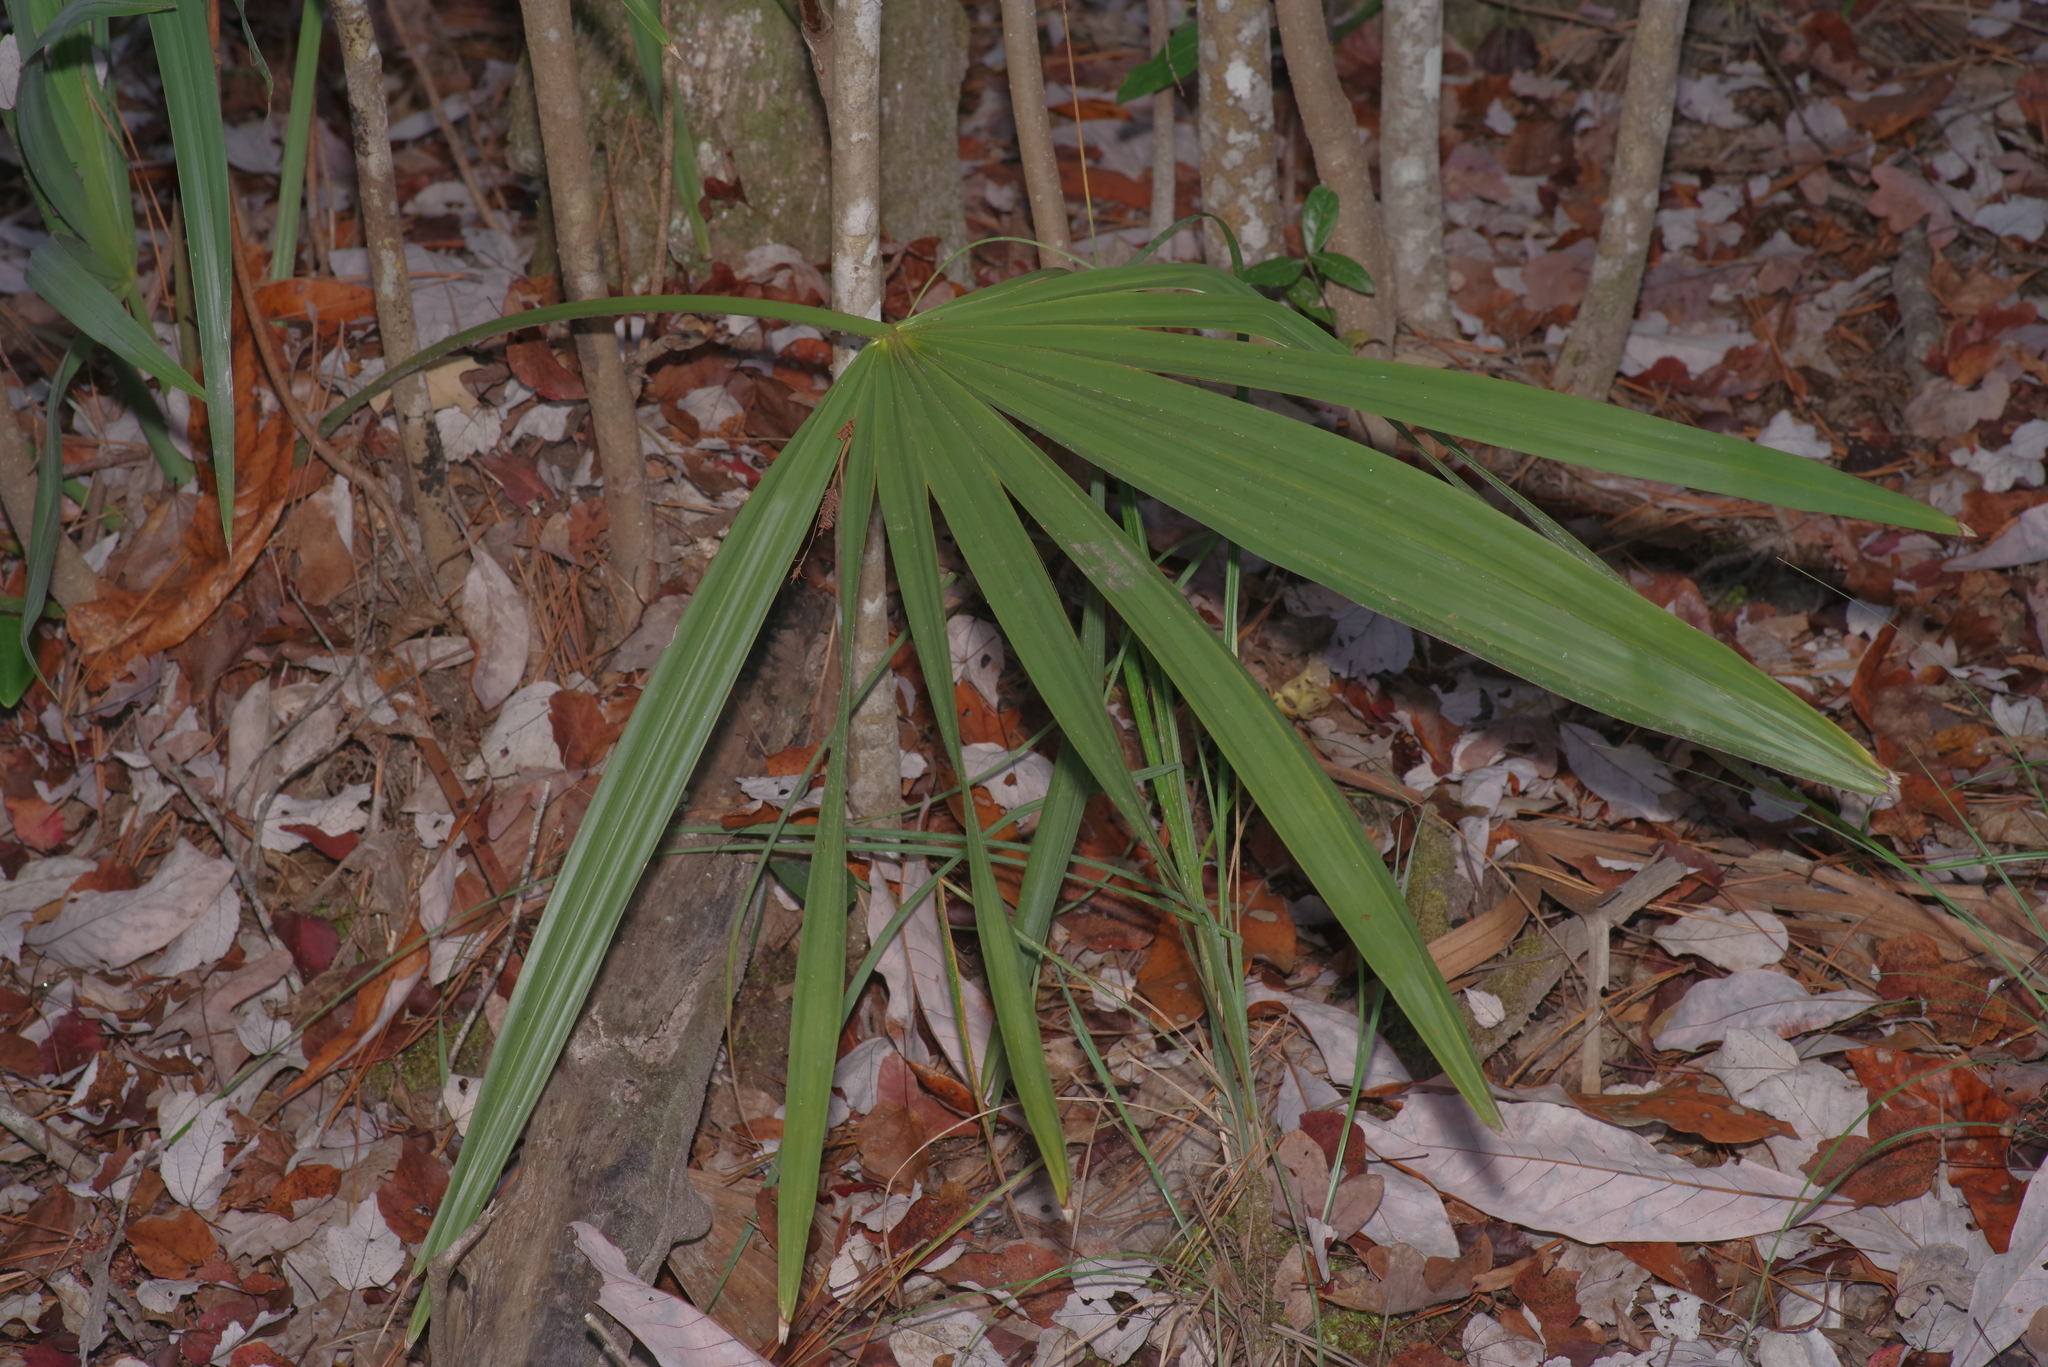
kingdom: Plantae
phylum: Tracheophyta
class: Liliopsida
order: Arecales
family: Arecaceae
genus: Sabal
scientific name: Sabal minor
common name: Dwarf palmetto
